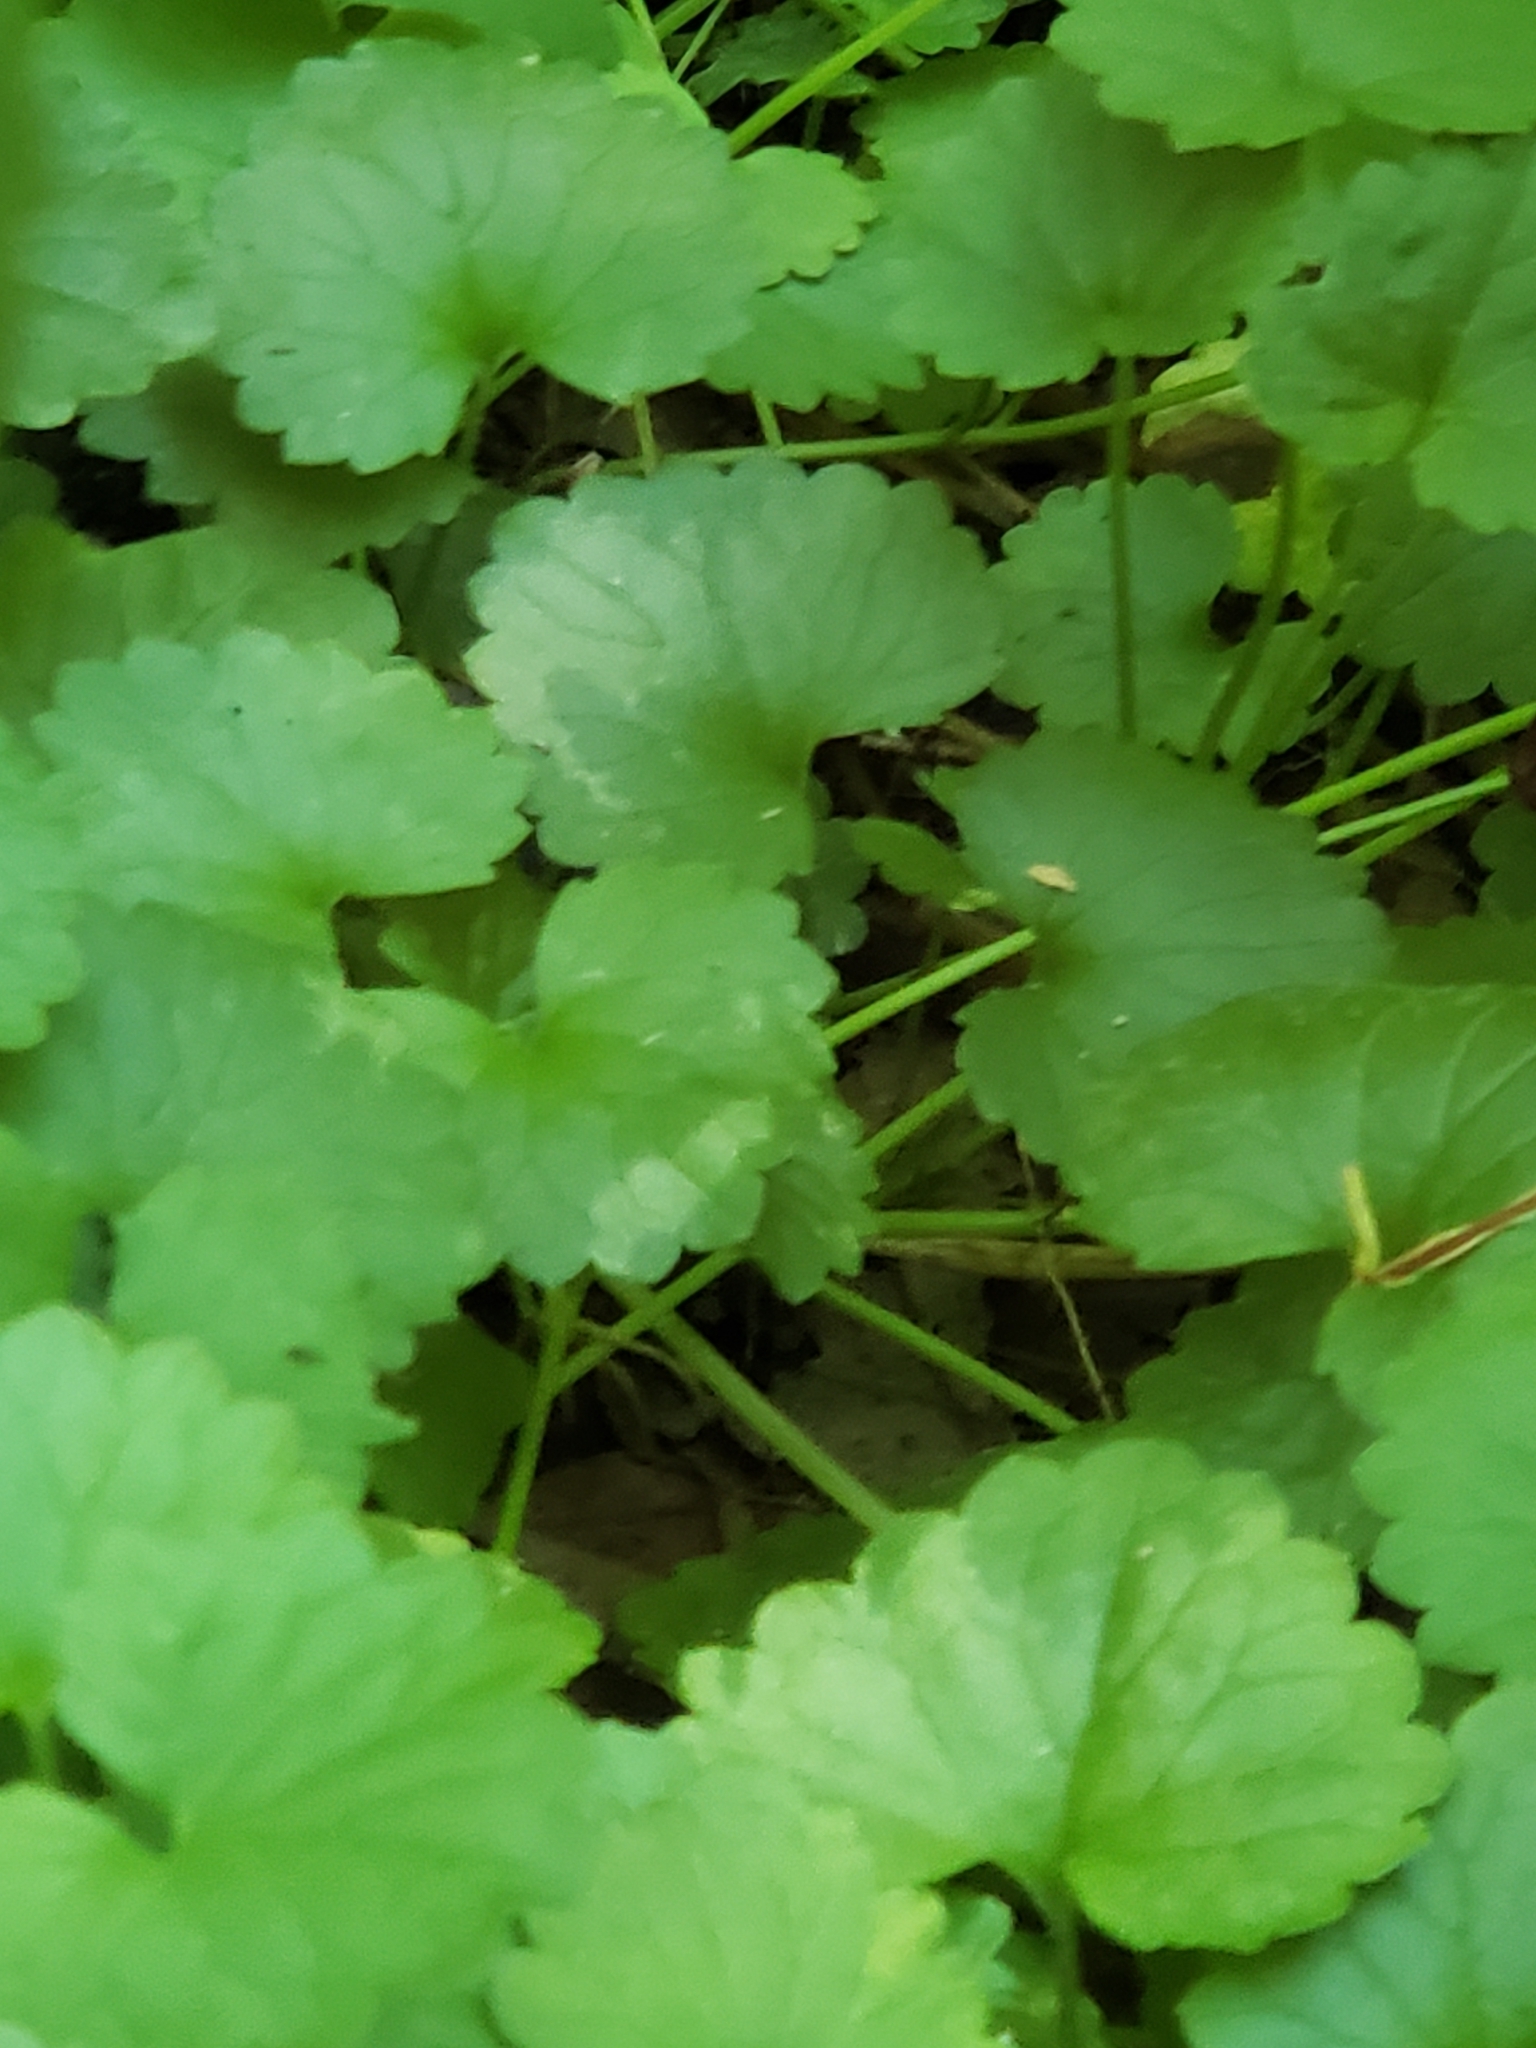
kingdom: Plantae
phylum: Tracheophyta
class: Magnoliopsida
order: Lamiales
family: Lamiaceae
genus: Glechoma
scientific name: Glechoma hederacea
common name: Ground ivy
